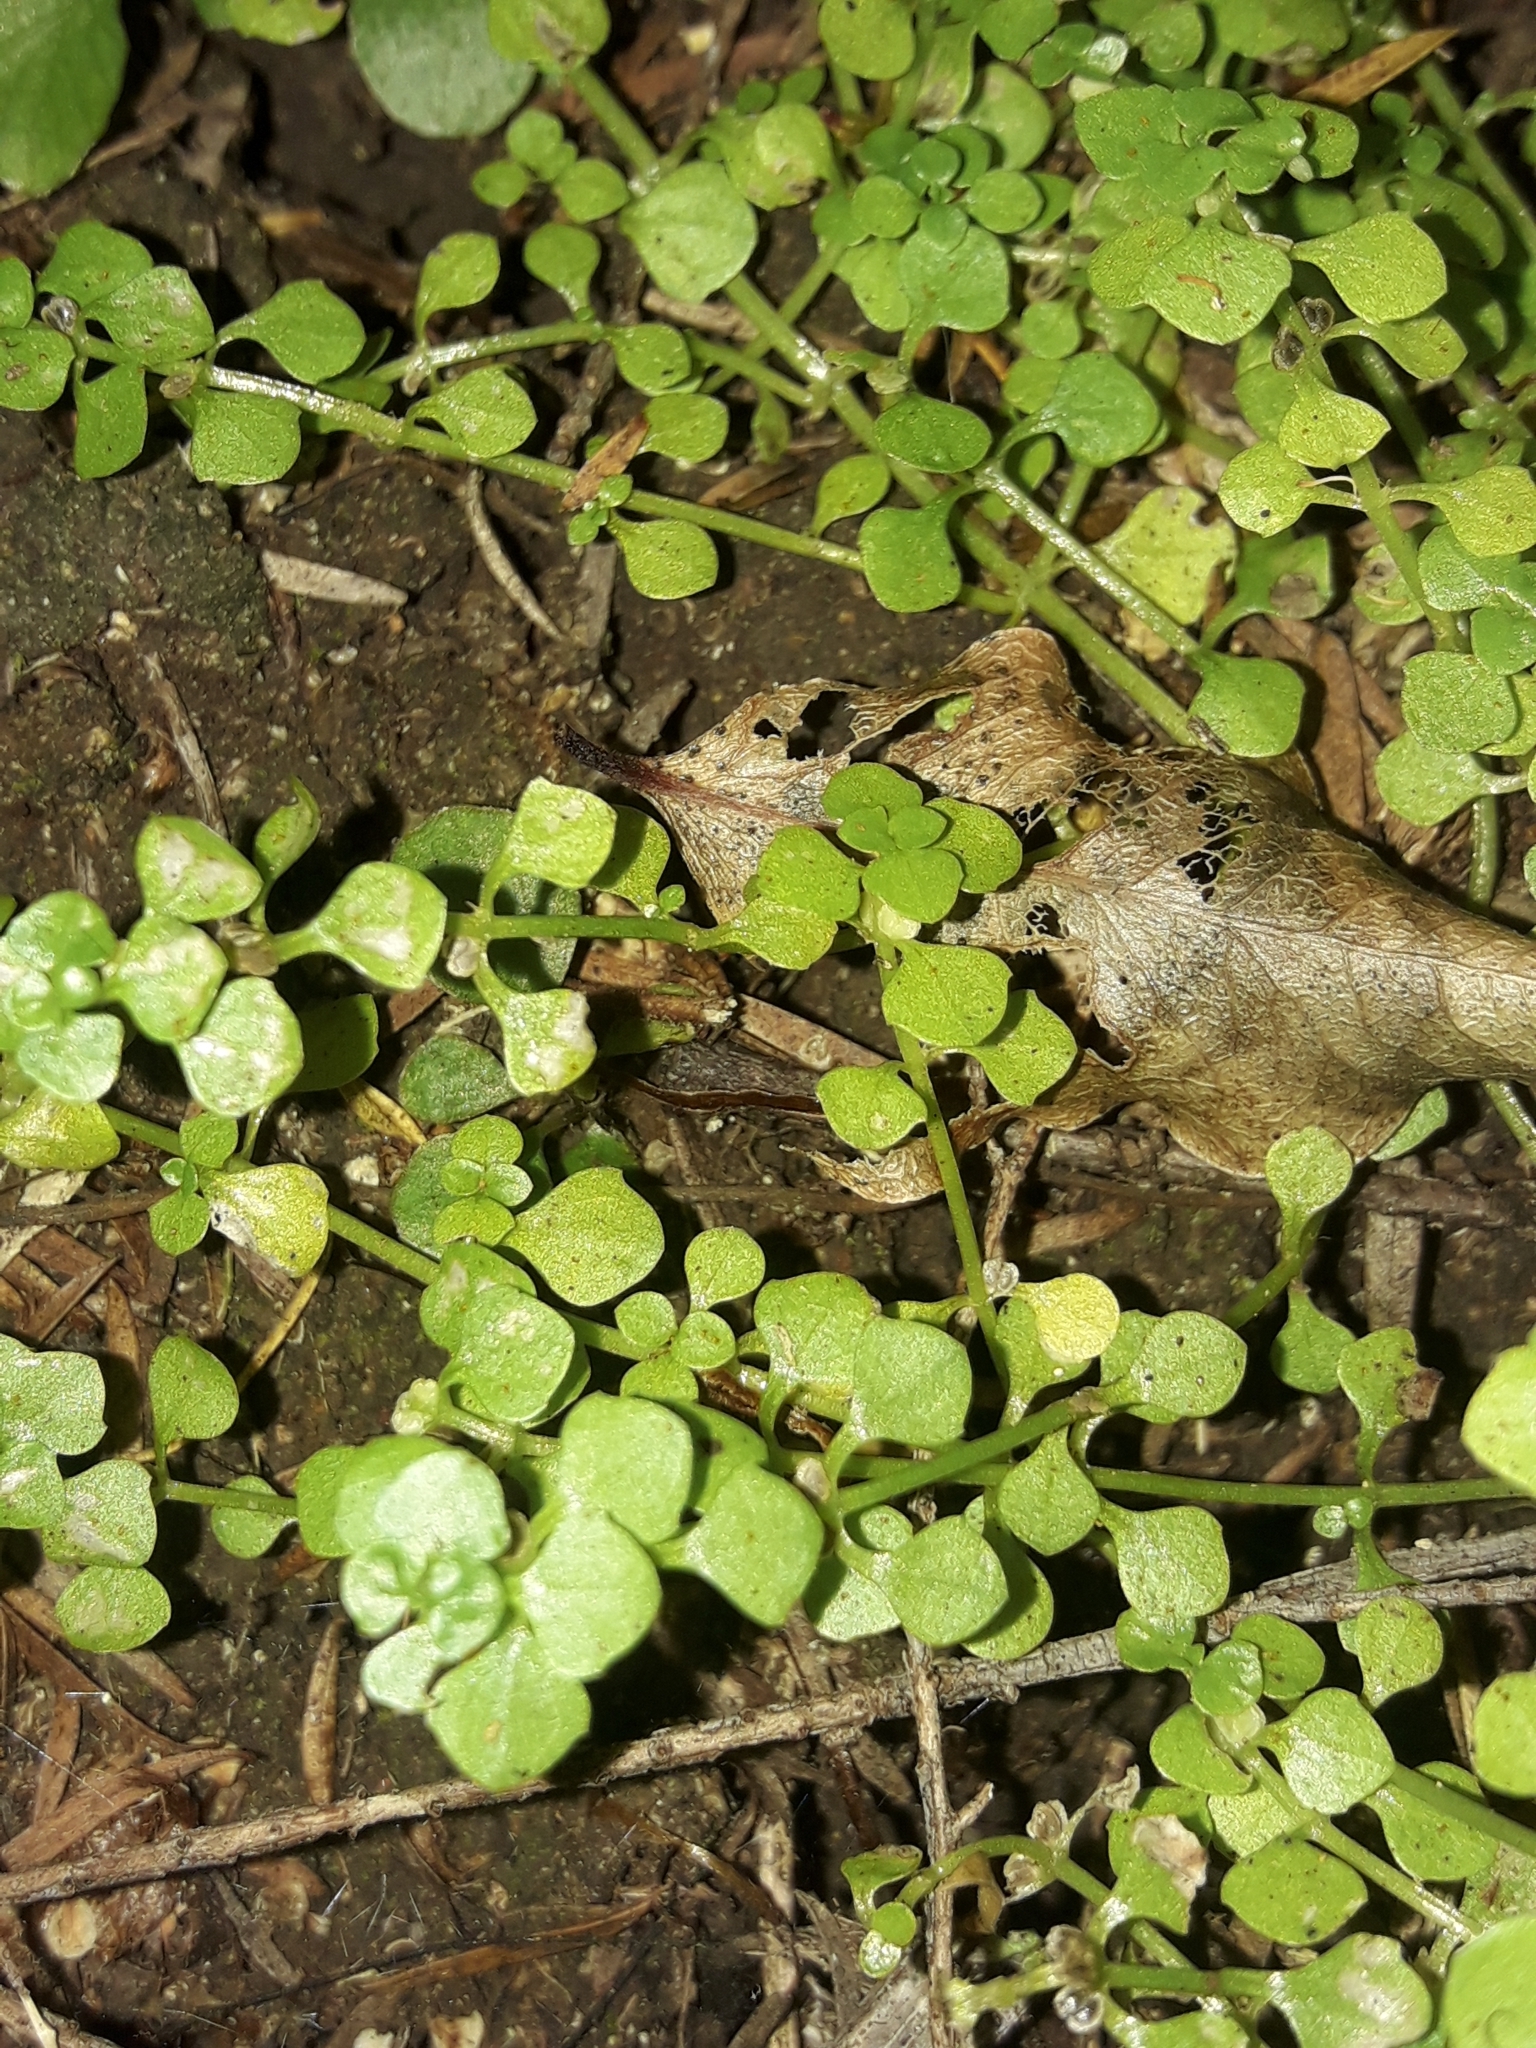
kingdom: Plantae
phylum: Tracheophyta
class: Magnoliopsida
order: Lamiales
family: Plantaginaceae
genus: Callitriche
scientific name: Callitriche stagnalis
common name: Common water-starwort
